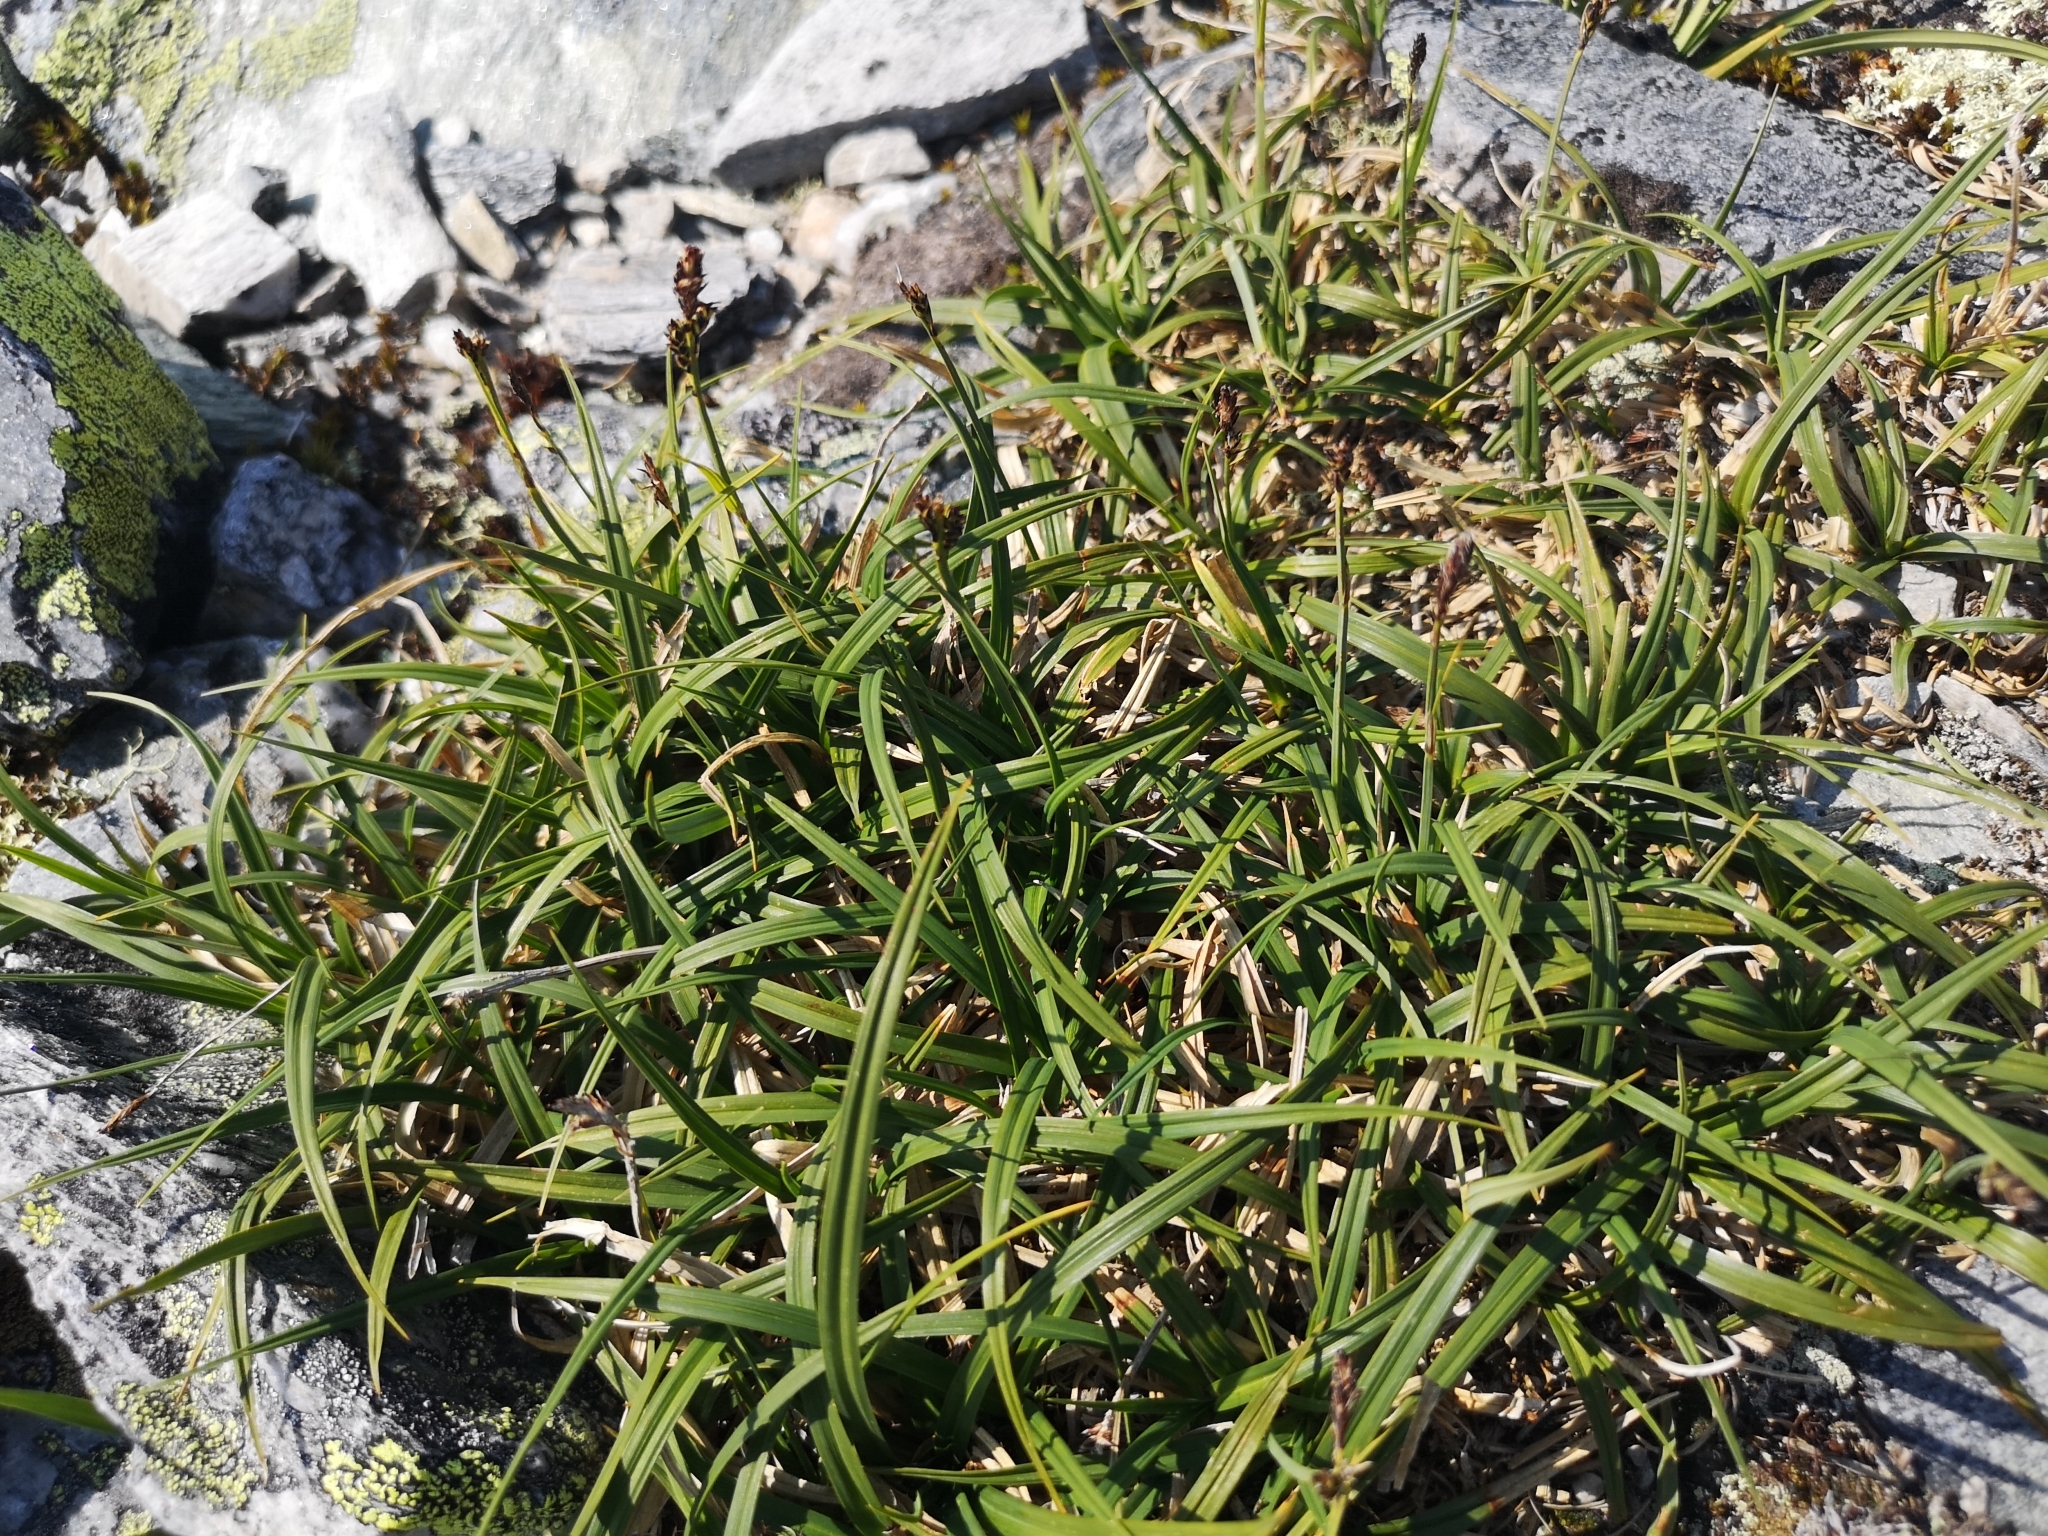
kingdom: Plantae
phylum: Tracheophyta
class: Liliopsida
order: Poales
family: Cyperaceae
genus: Carex
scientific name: Carex bigelowii
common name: Stiff sedge
